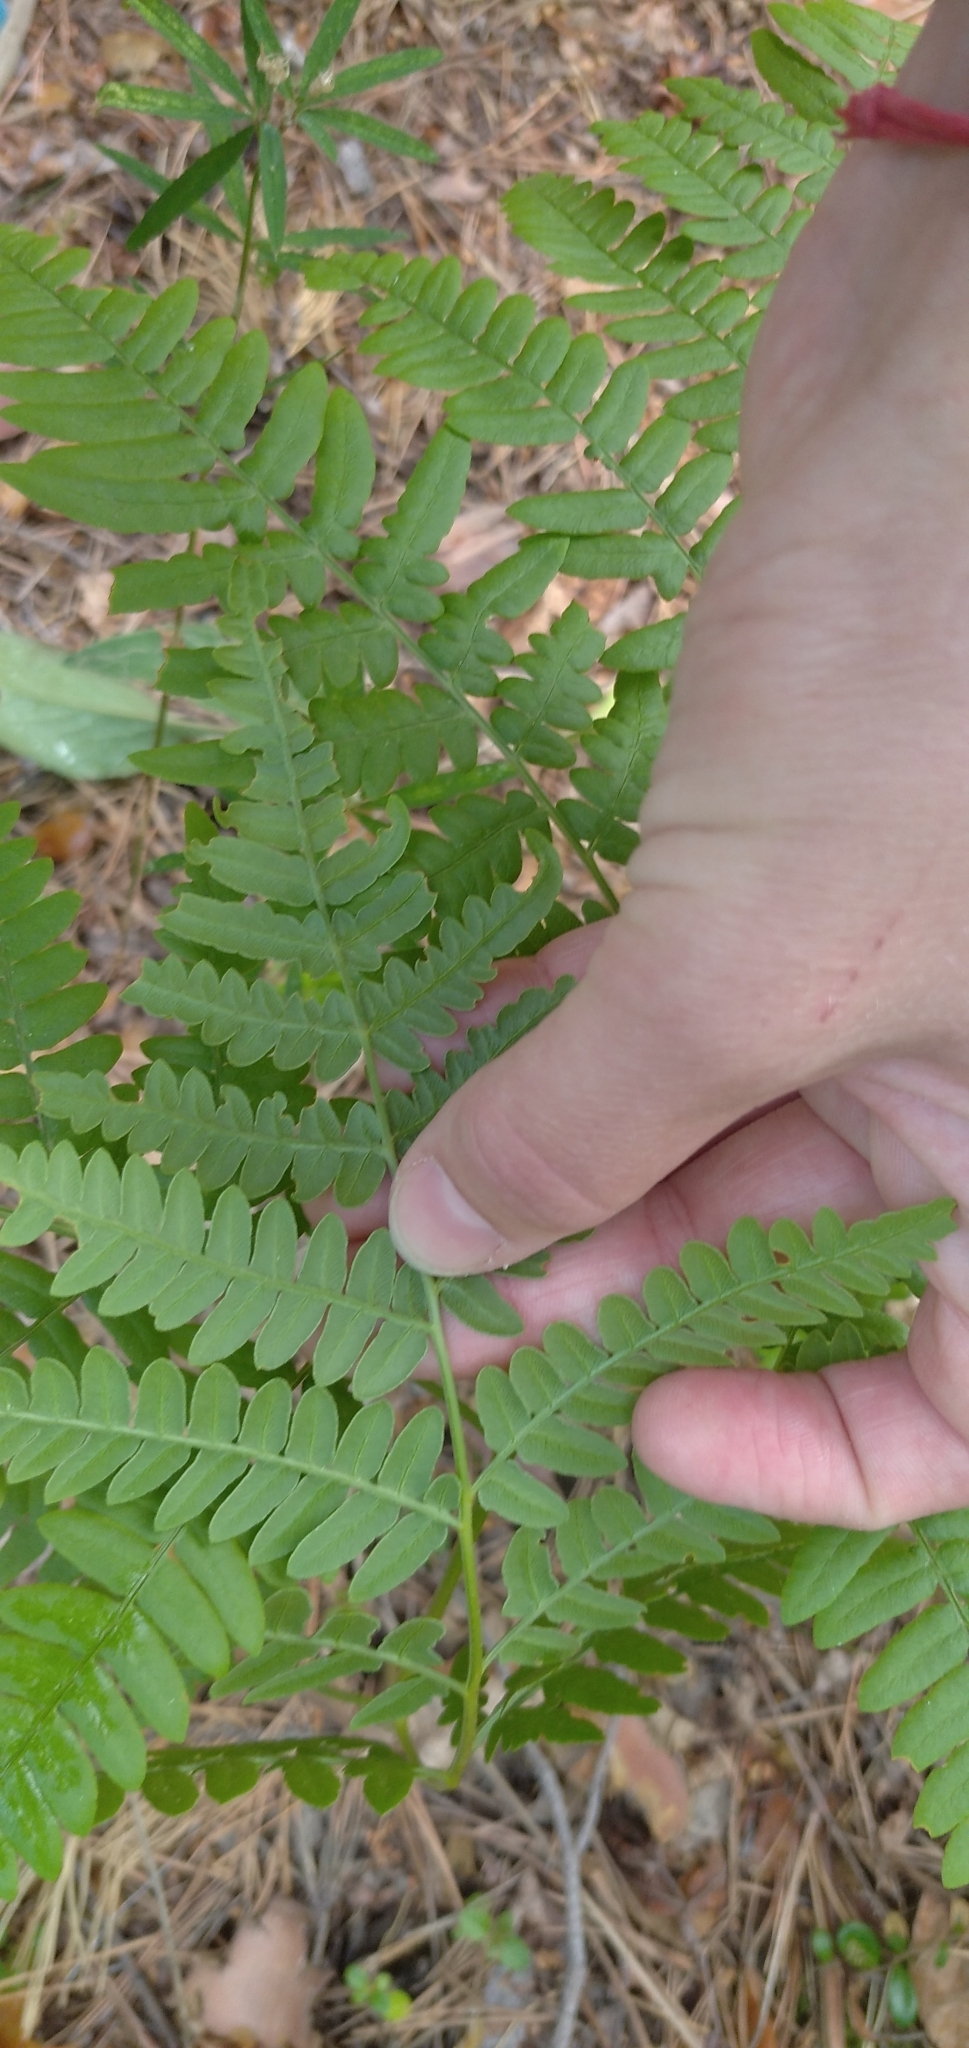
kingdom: Plantae
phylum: Tracheophyta
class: Polypodiopsida
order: Polypodiales
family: Dennstaedtiaceae
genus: Pteridium
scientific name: Pteridium aquilinum
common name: Bracken
